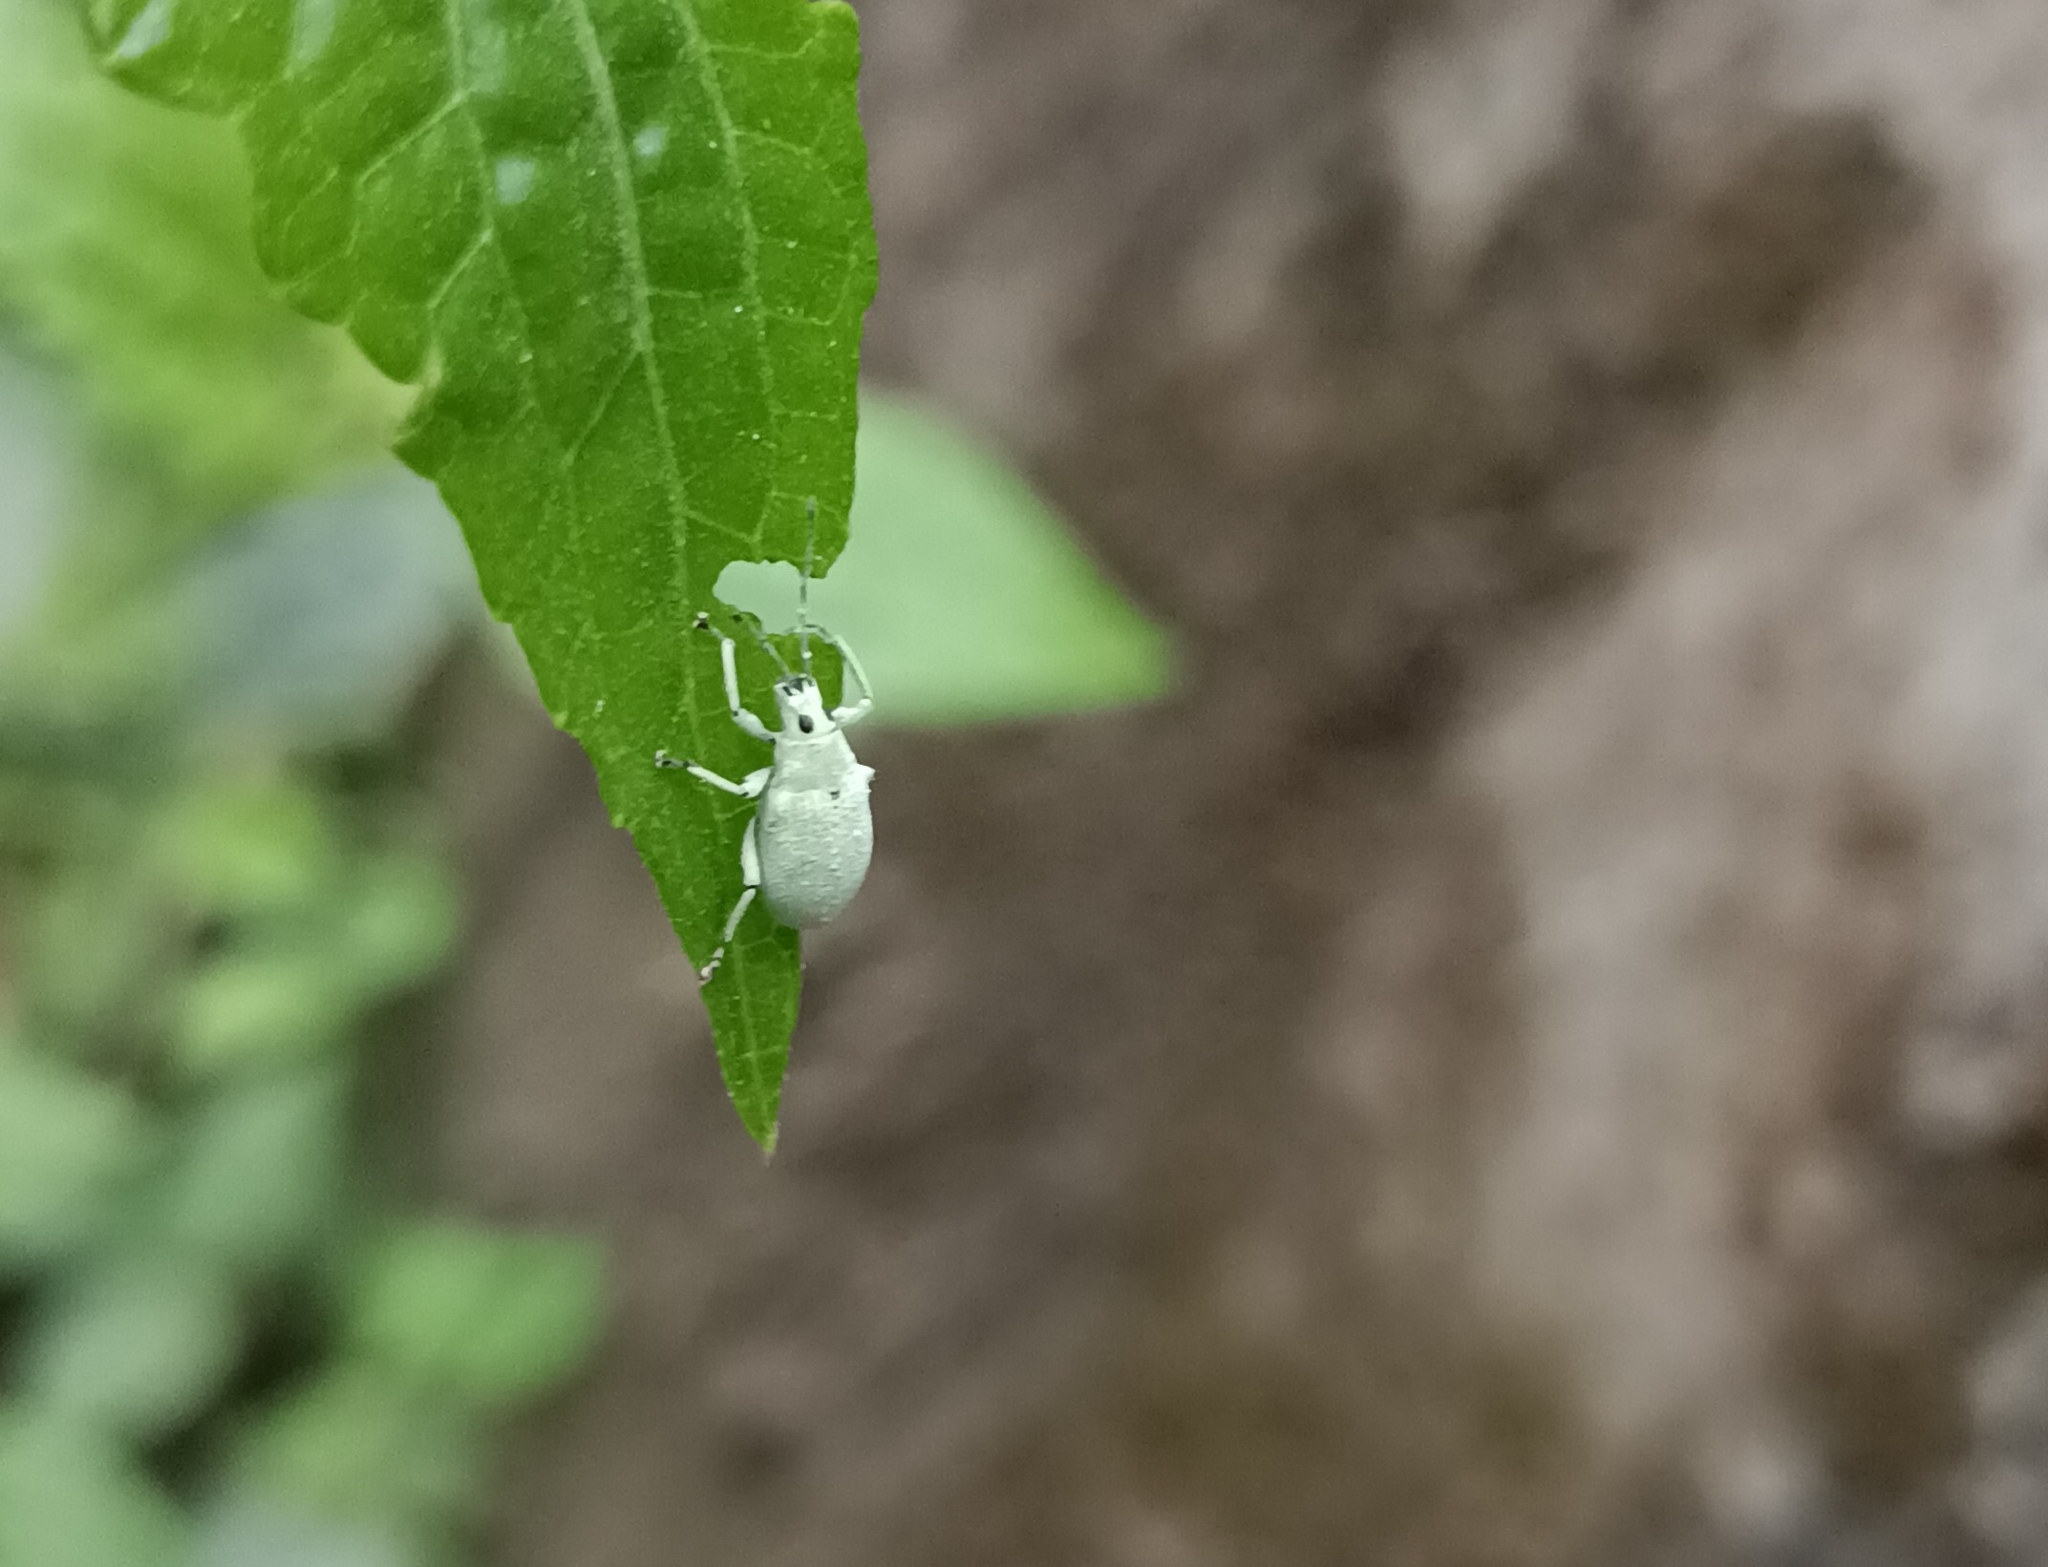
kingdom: Animalia
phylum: Arthropoda
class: Insecta
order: Coleoptera
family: Curculionidae
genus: Myllocerus
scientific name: Myllocerus undecimpustulatus
